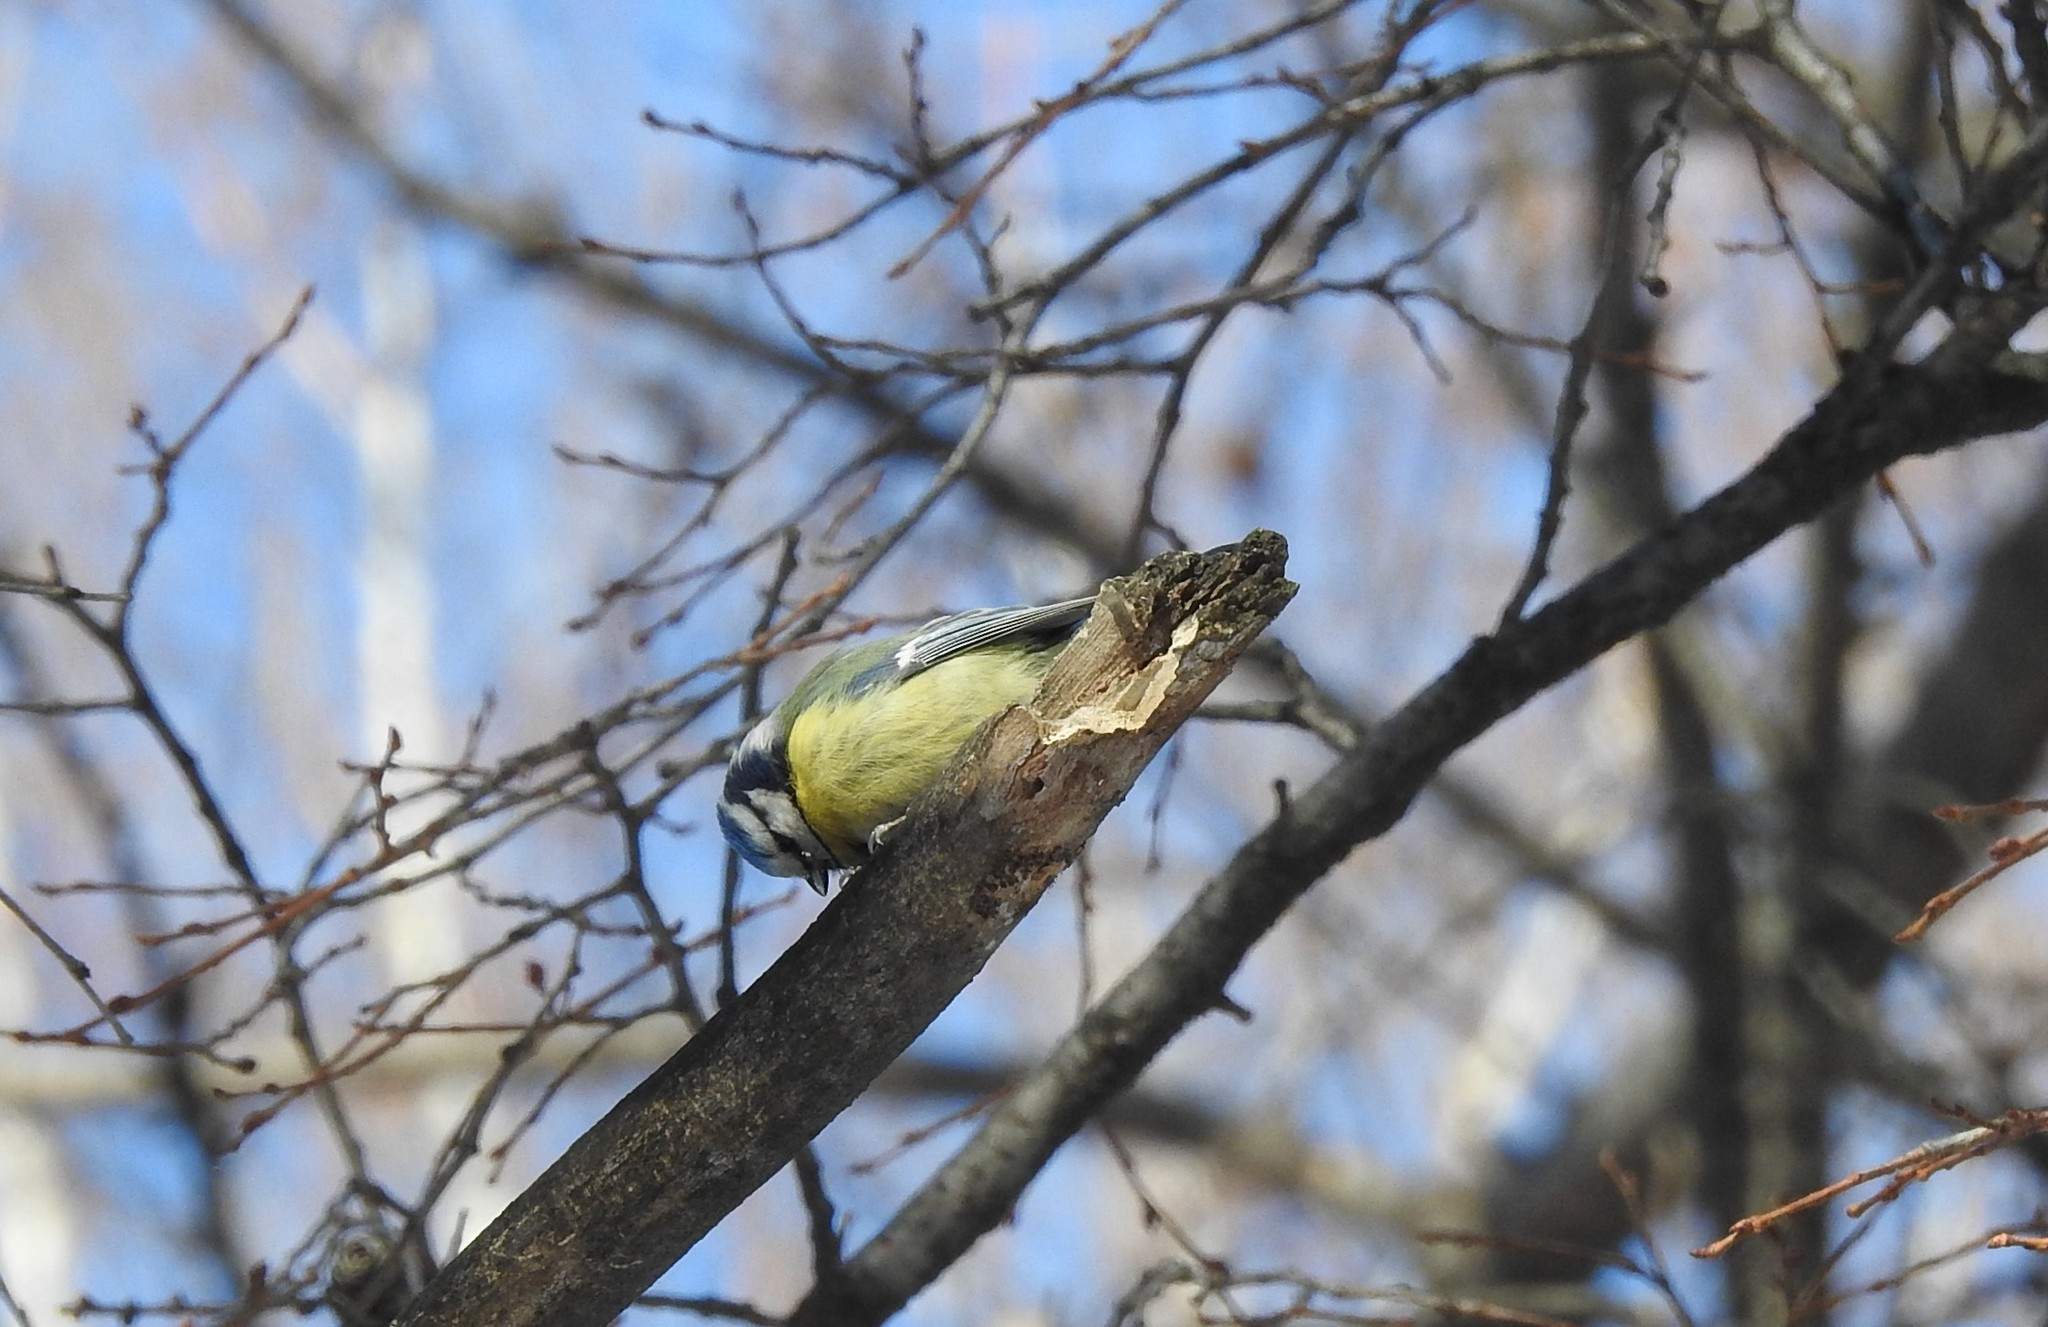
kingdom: Animalia
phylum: Chordata
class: Aves
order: Passeriformes
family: Paridae
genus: Cyanistes
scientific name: Cyanistes caeruleus
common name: Eurasian blue tit
